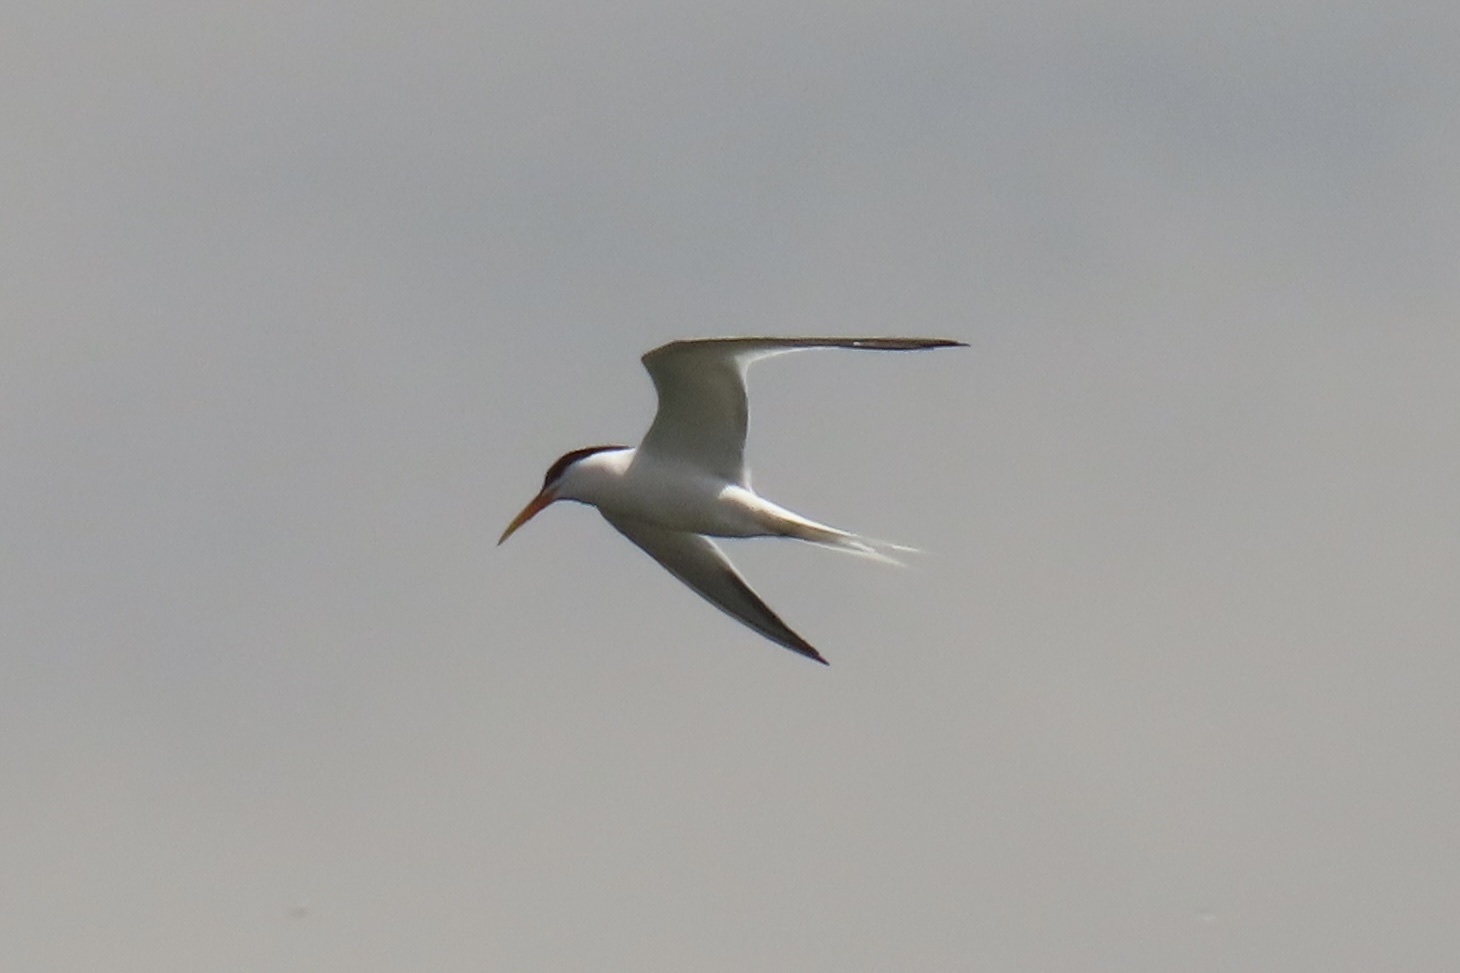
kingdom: Animalia
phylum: Chordata
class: Aves
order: Charadriiformes
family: Laridae
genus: Thalasseus
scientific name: Thalasseus elegans
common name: Elegant tern
